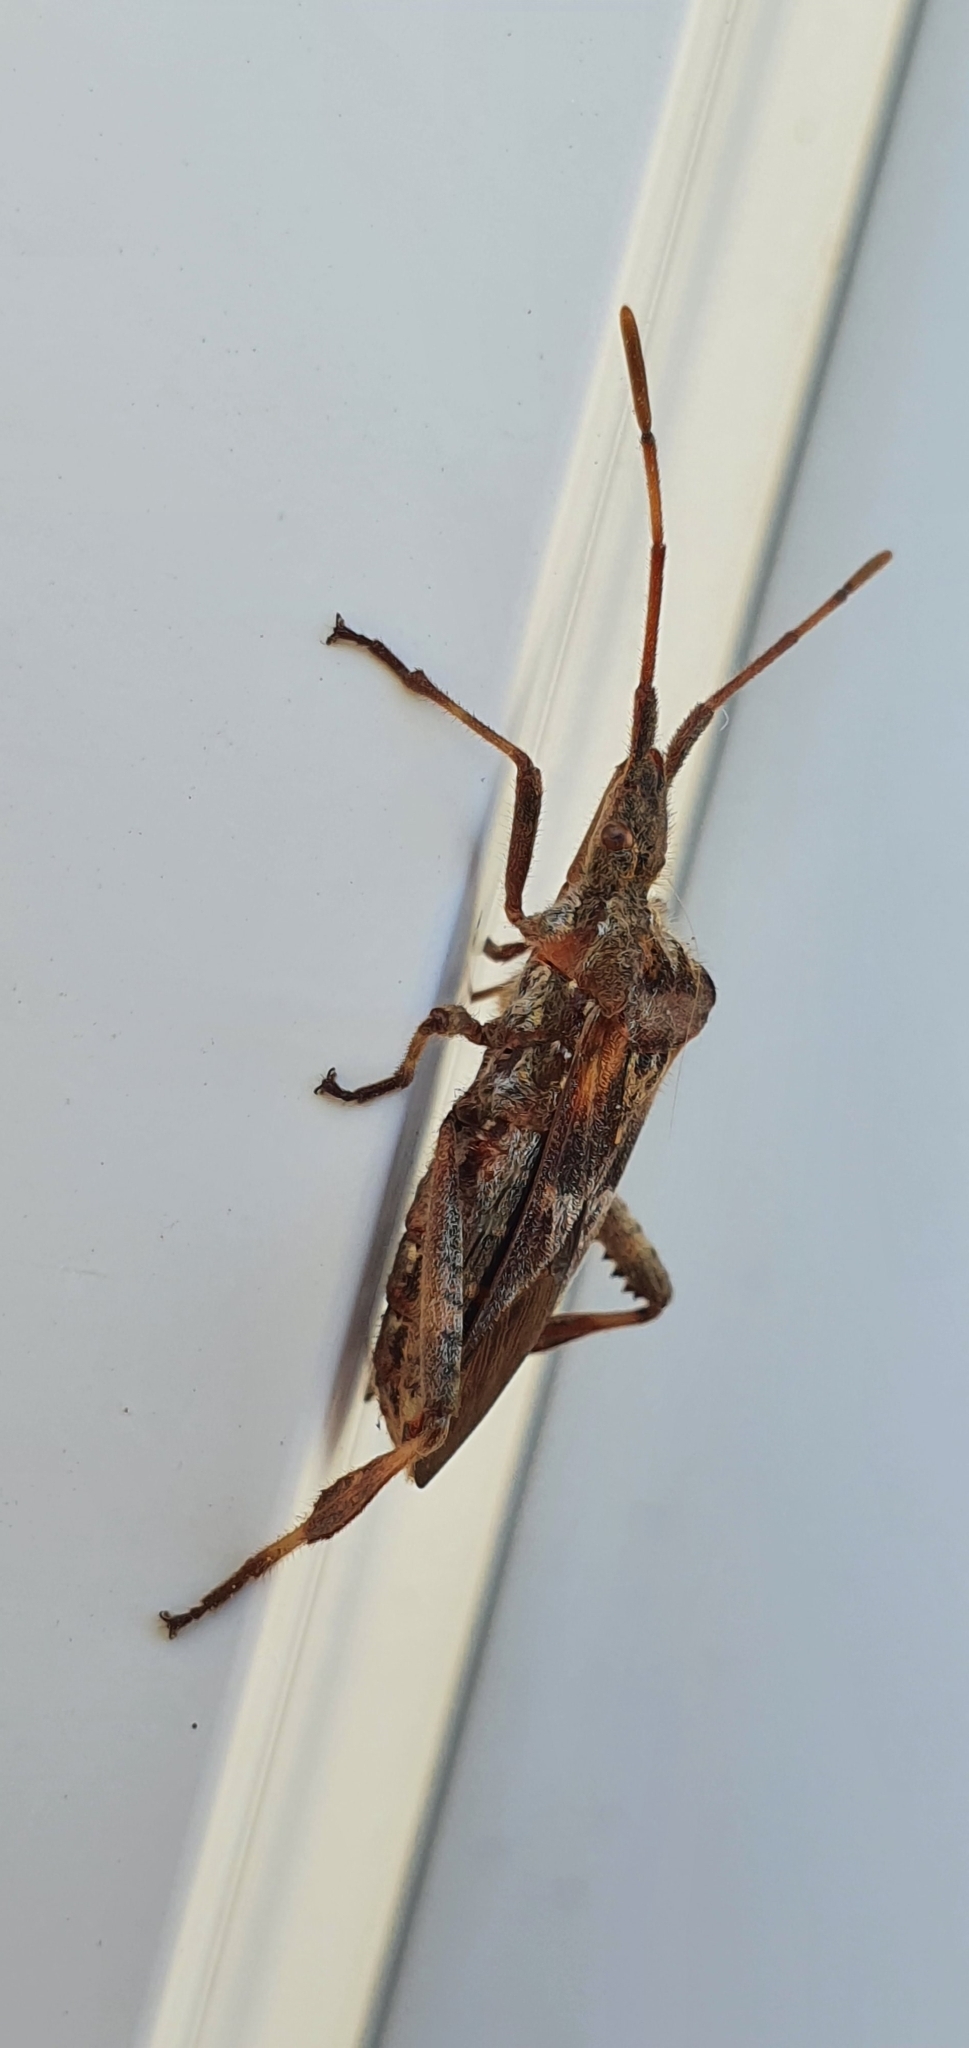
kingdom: Animalia
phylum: Arthropoda
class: Insecta
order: Hemiptera
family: Coreidae
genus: Leptoglossus
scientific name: Leptoglossus occidentalis
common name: Western conifer-seed bug
